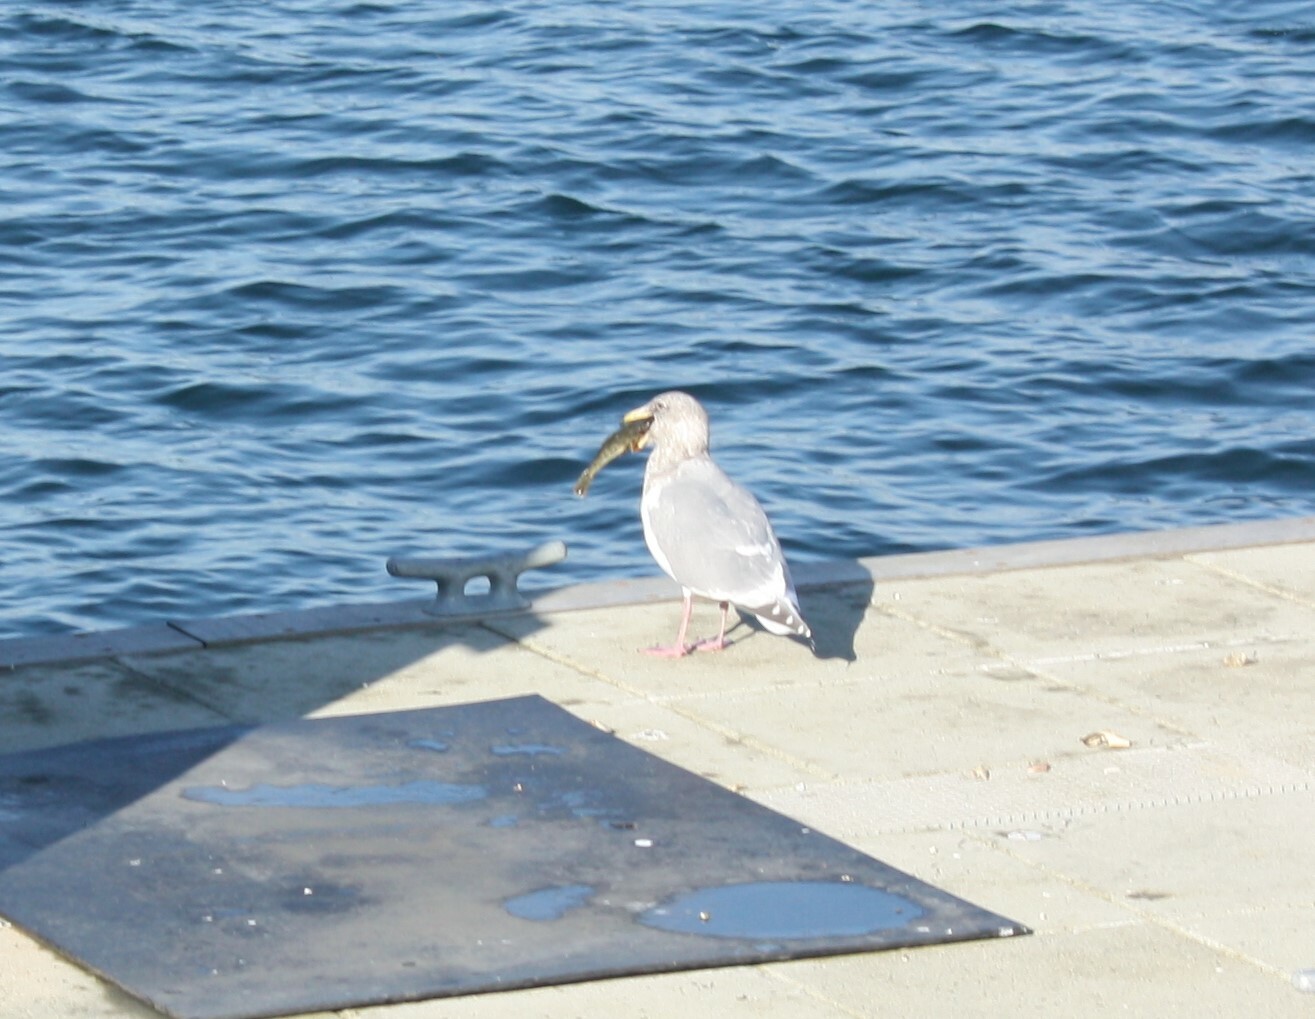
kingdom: Animalia
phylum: Chordata
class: Aves
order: Charadriiformes
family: Laridae
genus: Larus
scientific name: Larus
